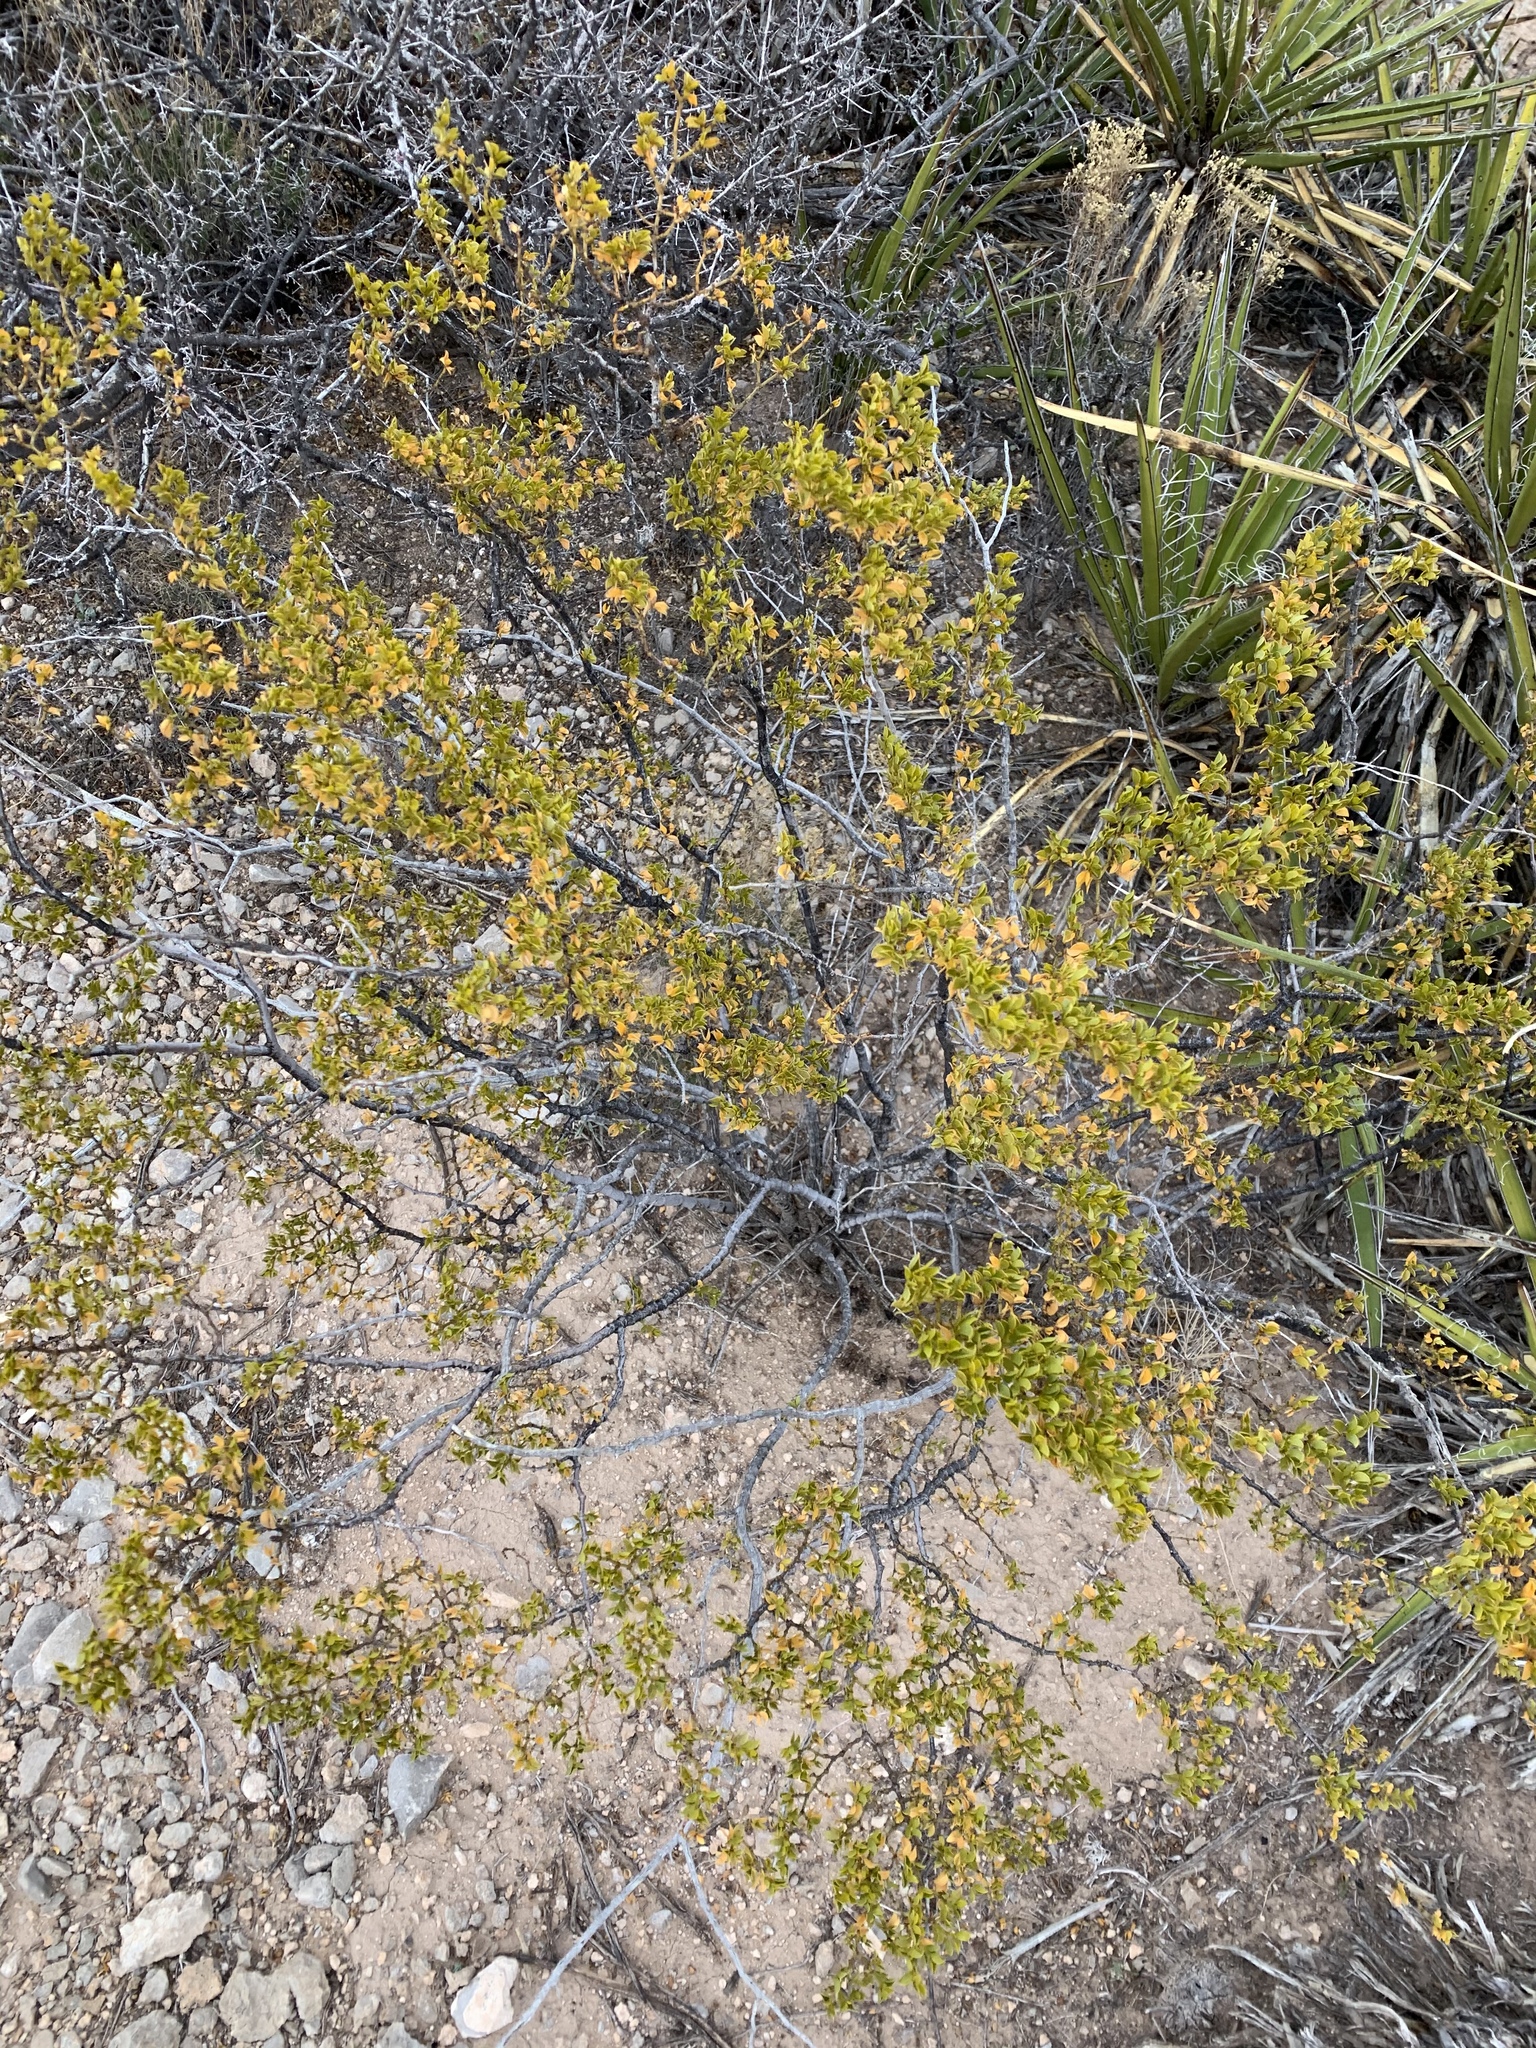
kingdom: Plantae
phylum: Tracheophyta
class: Magnoliopsida
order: Zygophyllales
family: Zygophyllaceae
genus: Larrea
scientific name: Larrea tridentata
